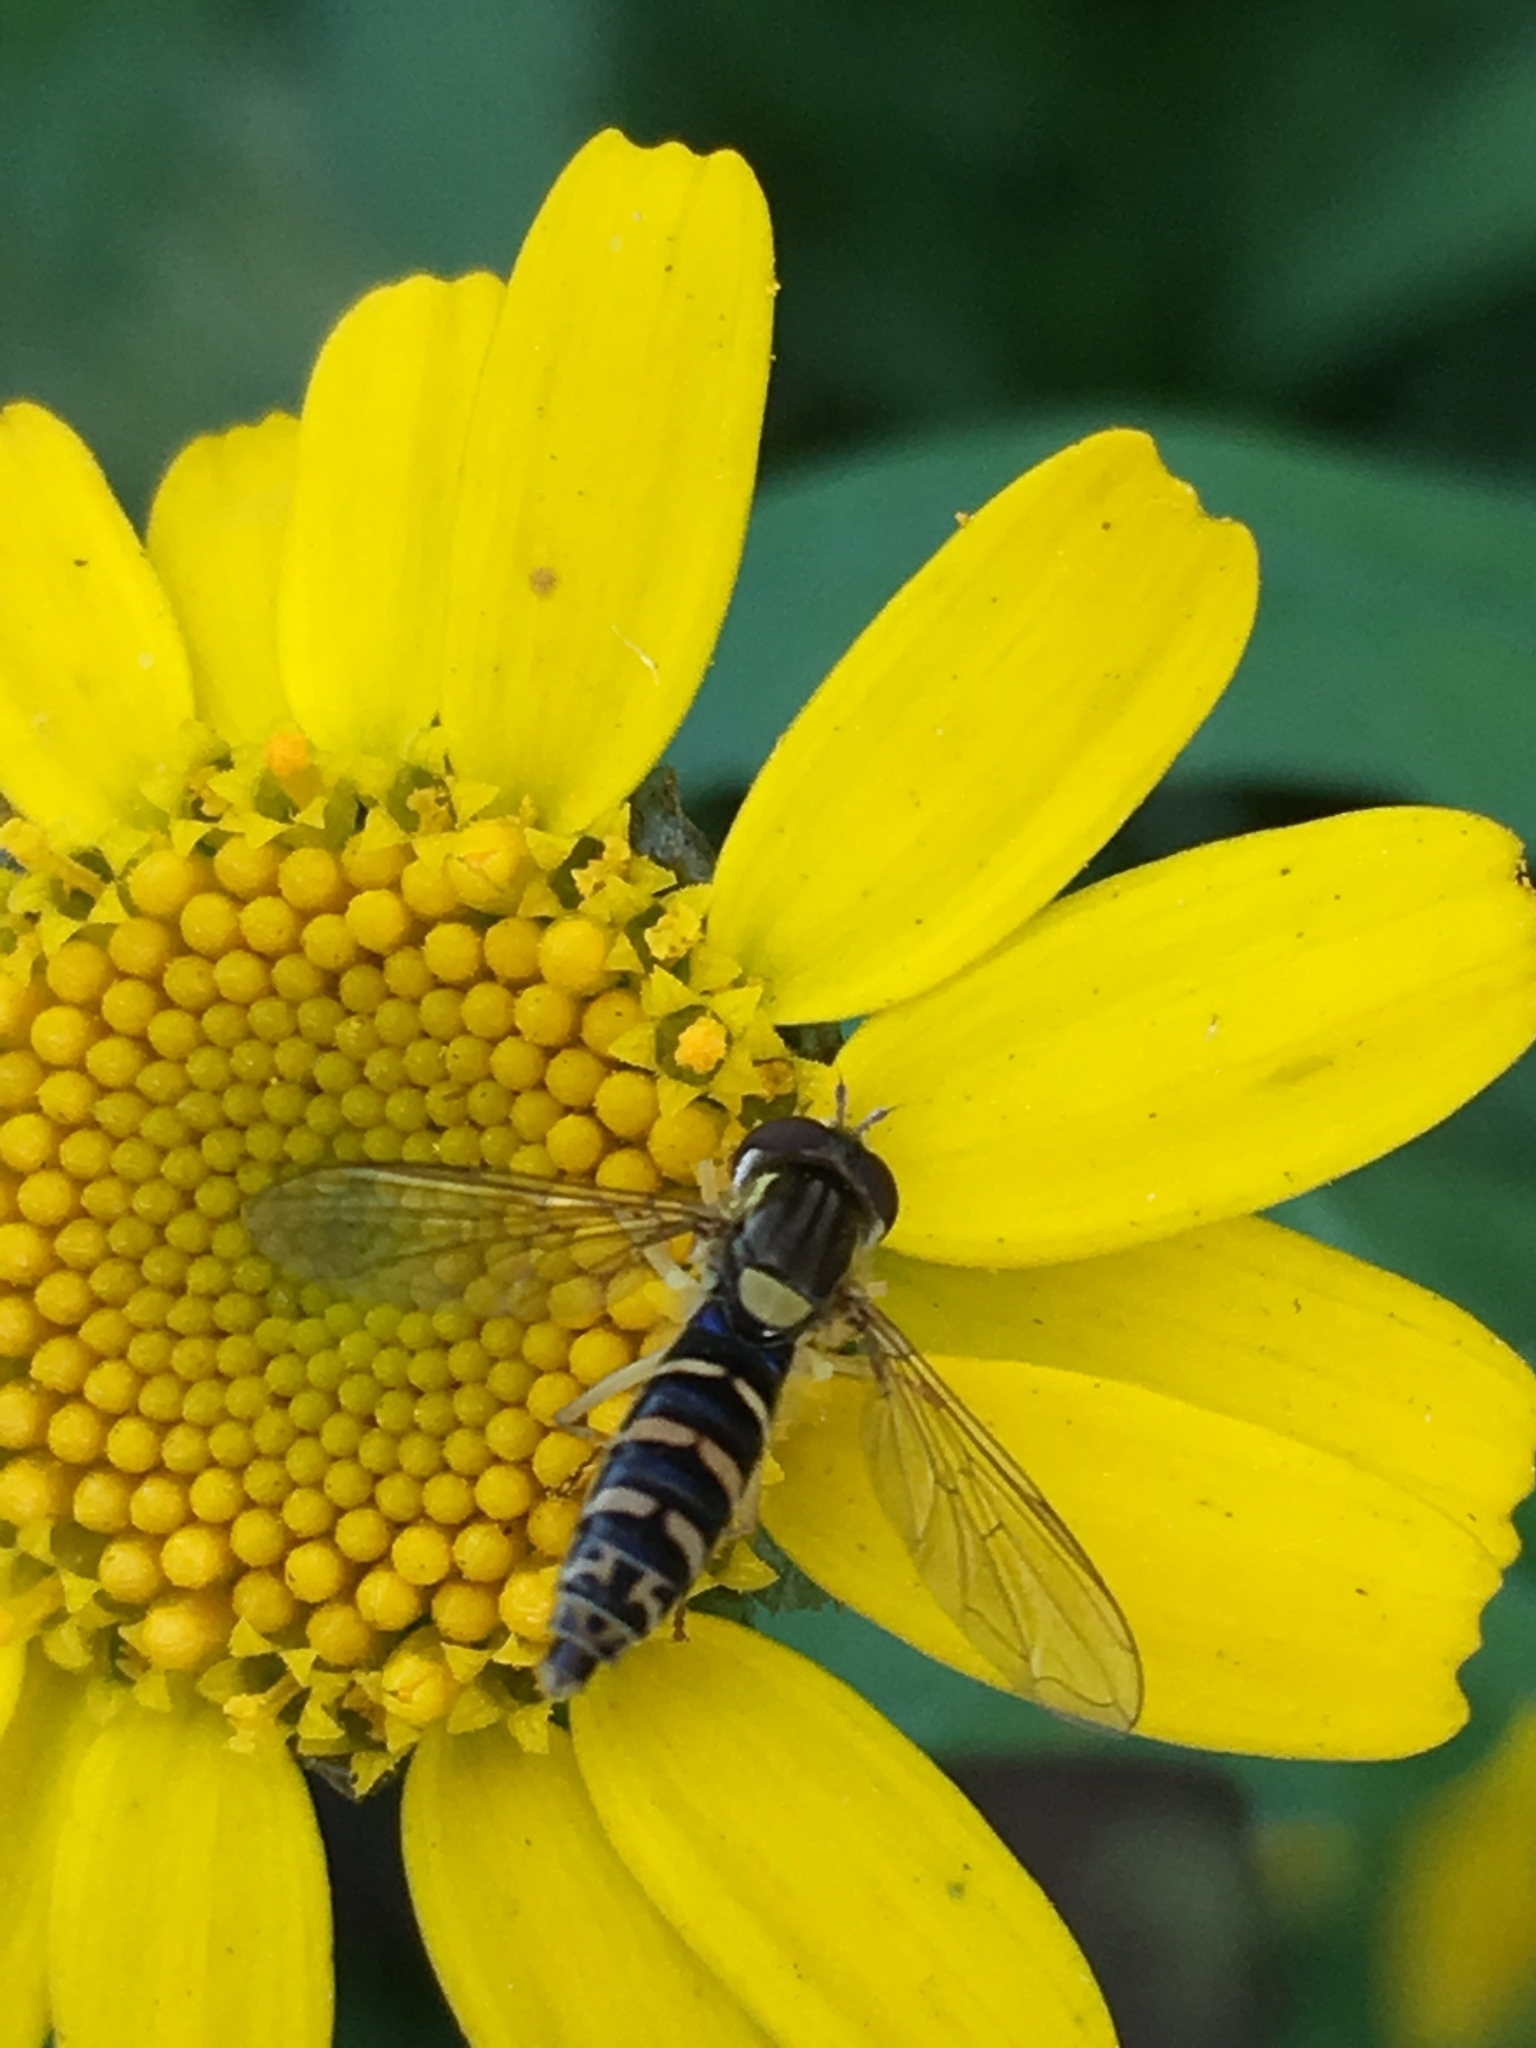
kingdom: Animalia
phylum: Arthropoda
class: Insecta
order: Diptera
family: Syrphidae
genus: Sphaerophoria
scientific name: Sphaerophoria
